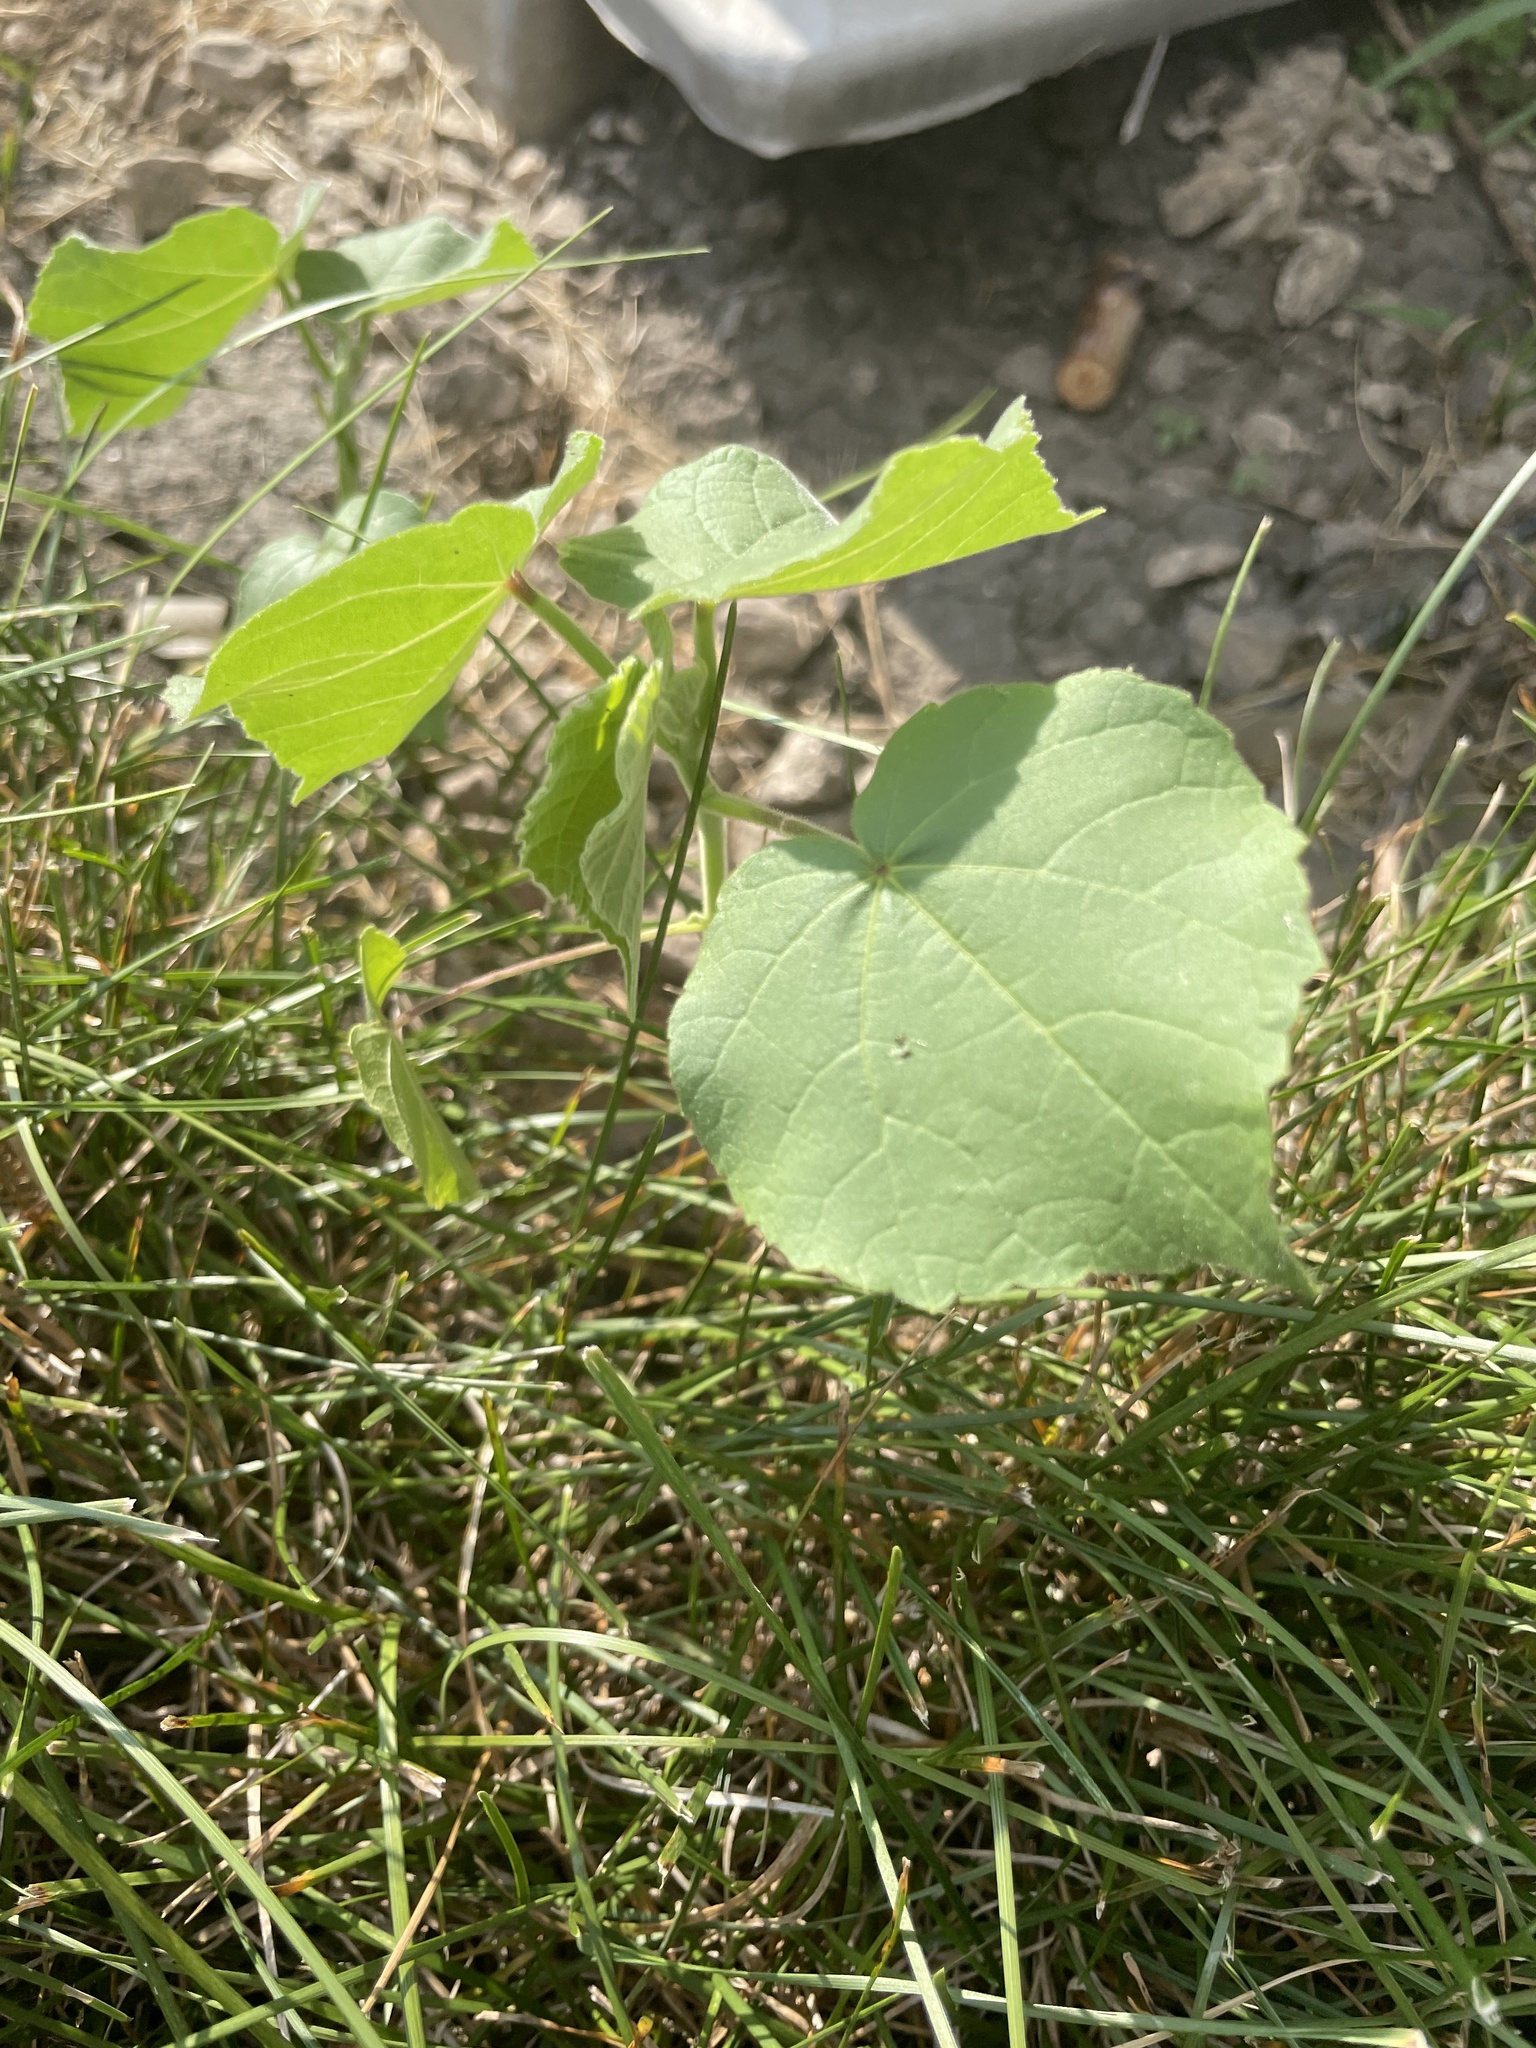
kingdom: Plantae
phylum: Tracheophyta
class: Magnoliopsida
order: Malvales
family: Malvaceae
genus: Abutilon
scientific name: Abutilon theophrasti
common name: Velvetleaf
